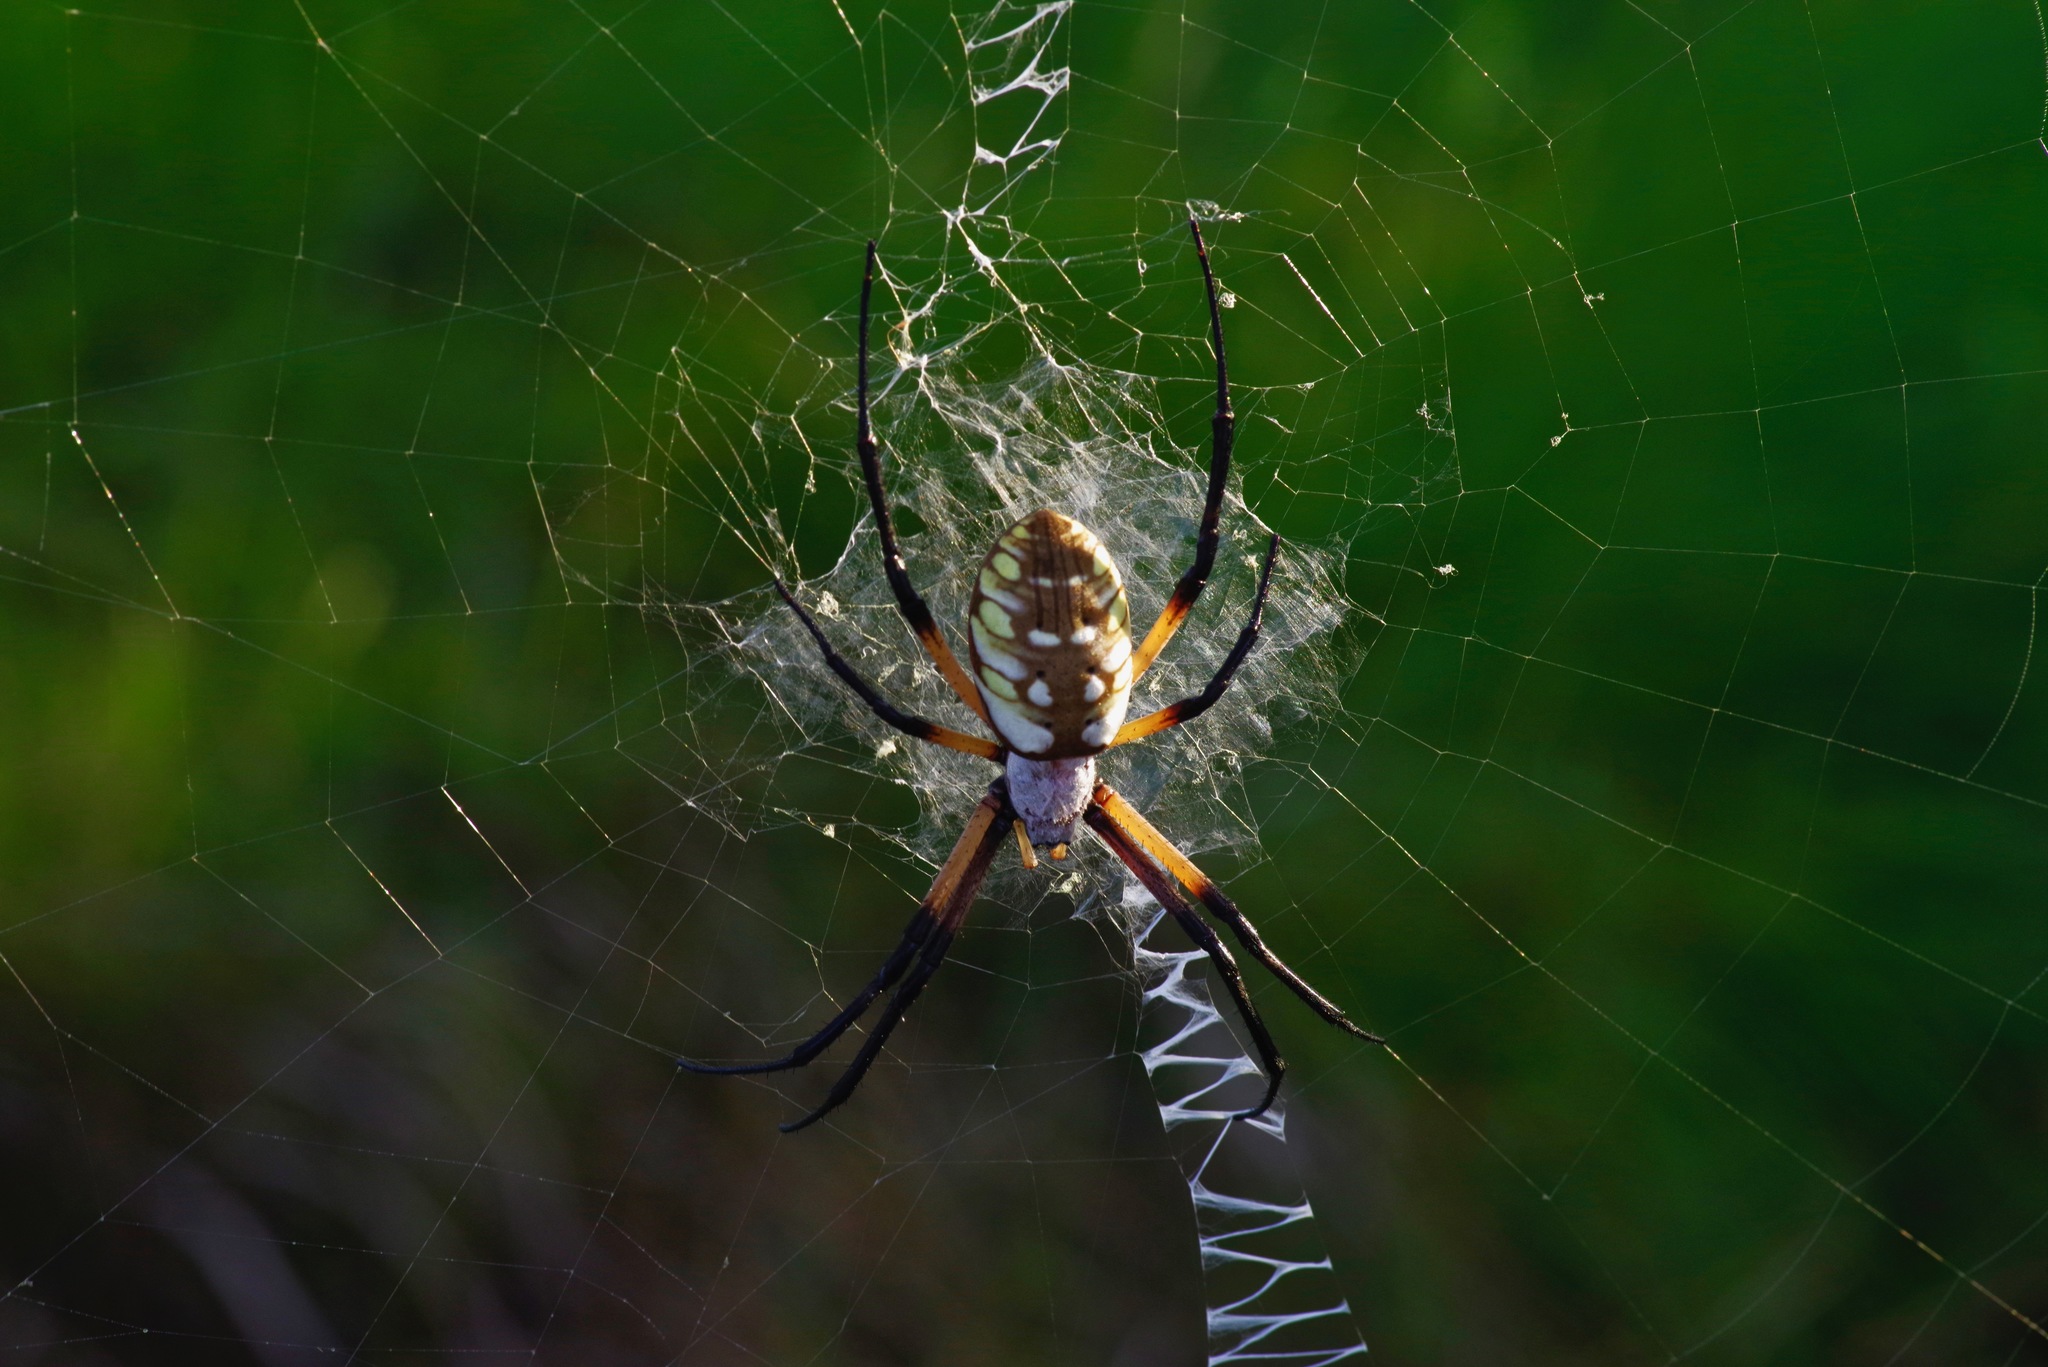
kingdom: Animalia
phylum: Arthropoda
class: Arachnida
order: Araneae
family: Araneidae
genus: Argiope
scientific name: Argiope aurantia
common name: Orb weavers
